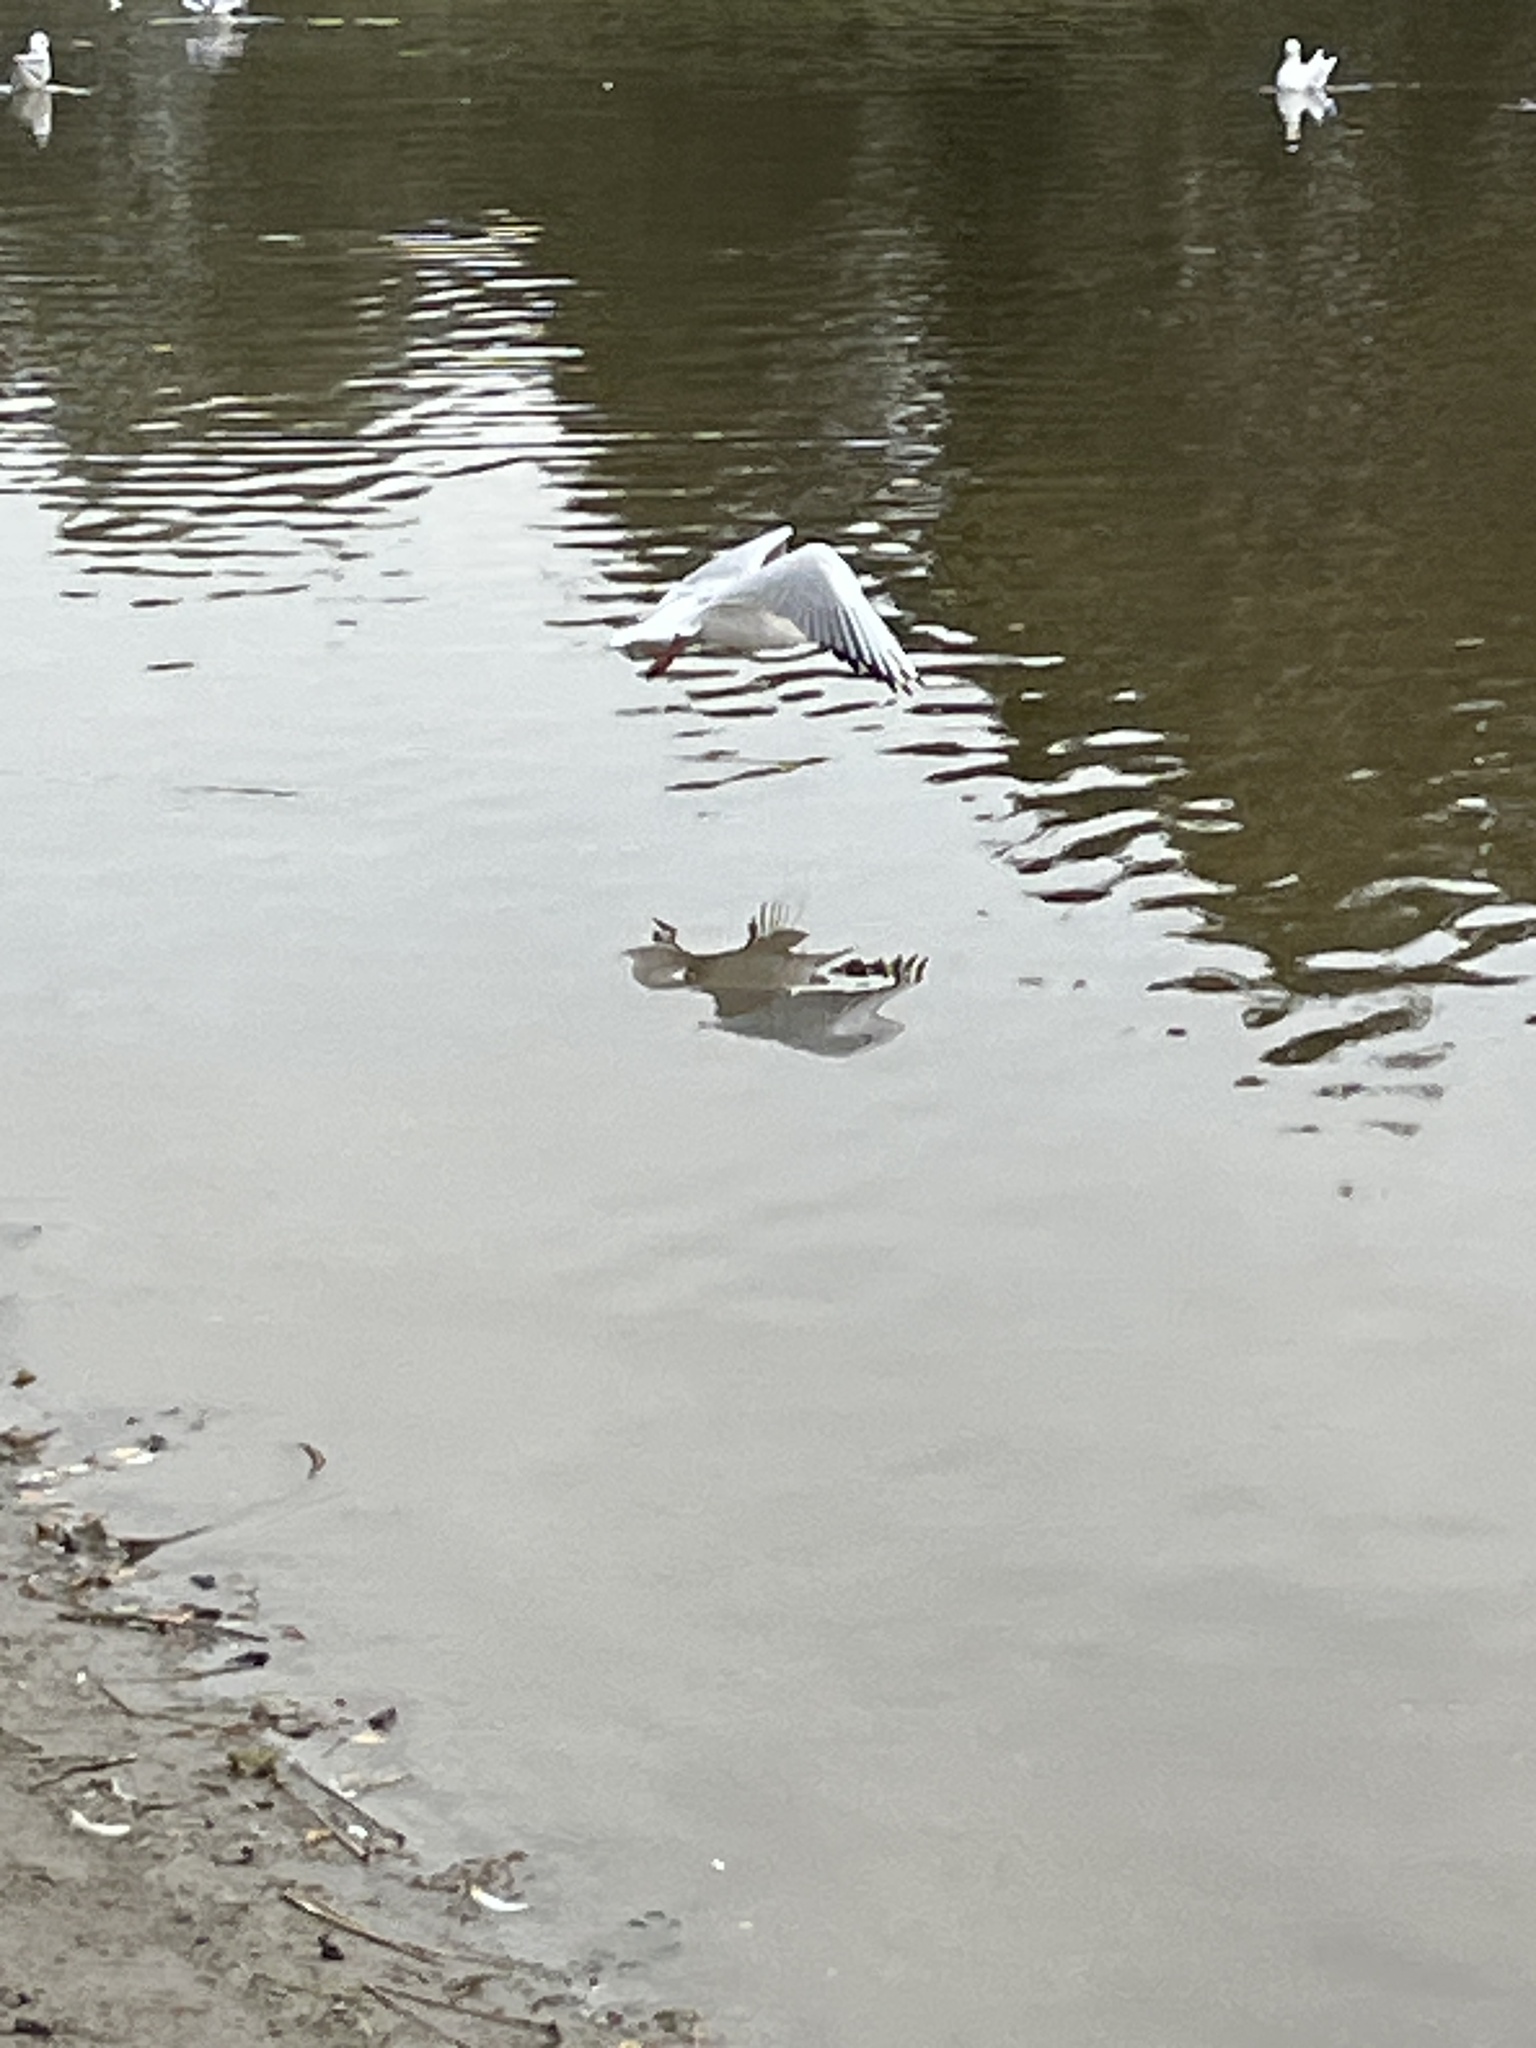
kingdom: Animalia
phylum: Chordata
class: Aves
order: Charadriiformes
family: Laridae
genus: Chroicocephalus
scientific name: Chroicocephalus ridibundus
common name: Black-headed gull
